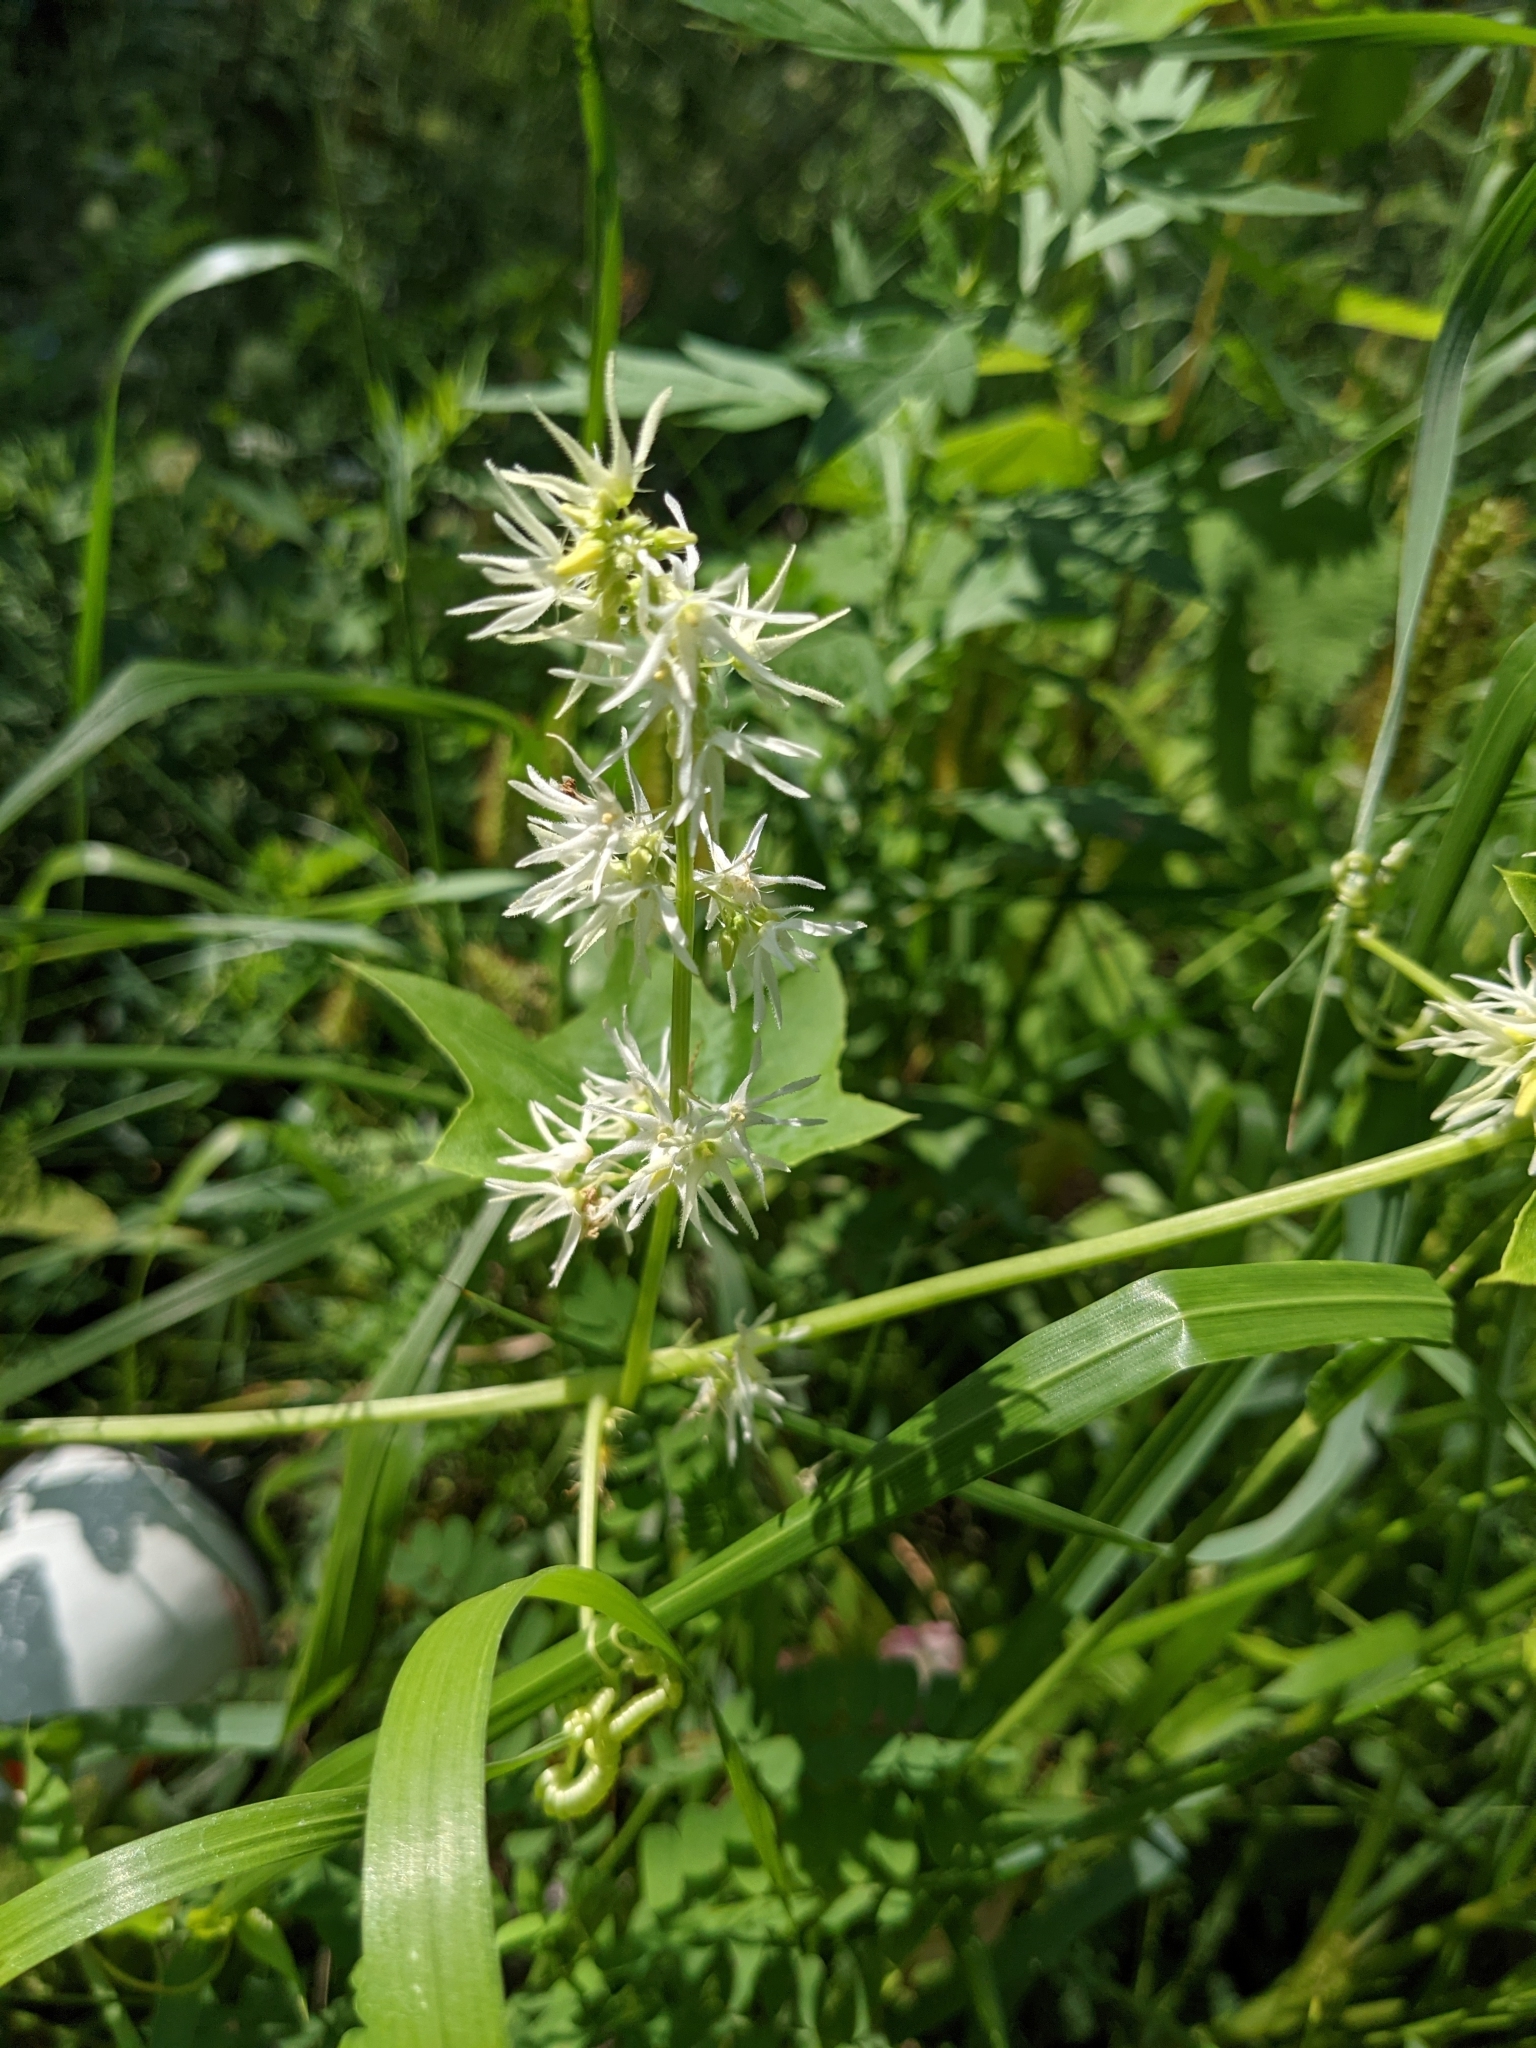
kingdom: Plantae
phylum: Tracheophyta
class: Magnoliopsida
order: Cucurbitales
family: Cucurbitaceae
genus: Echinocystis
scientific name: Echinocystis lobata
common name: Wild cucumber
